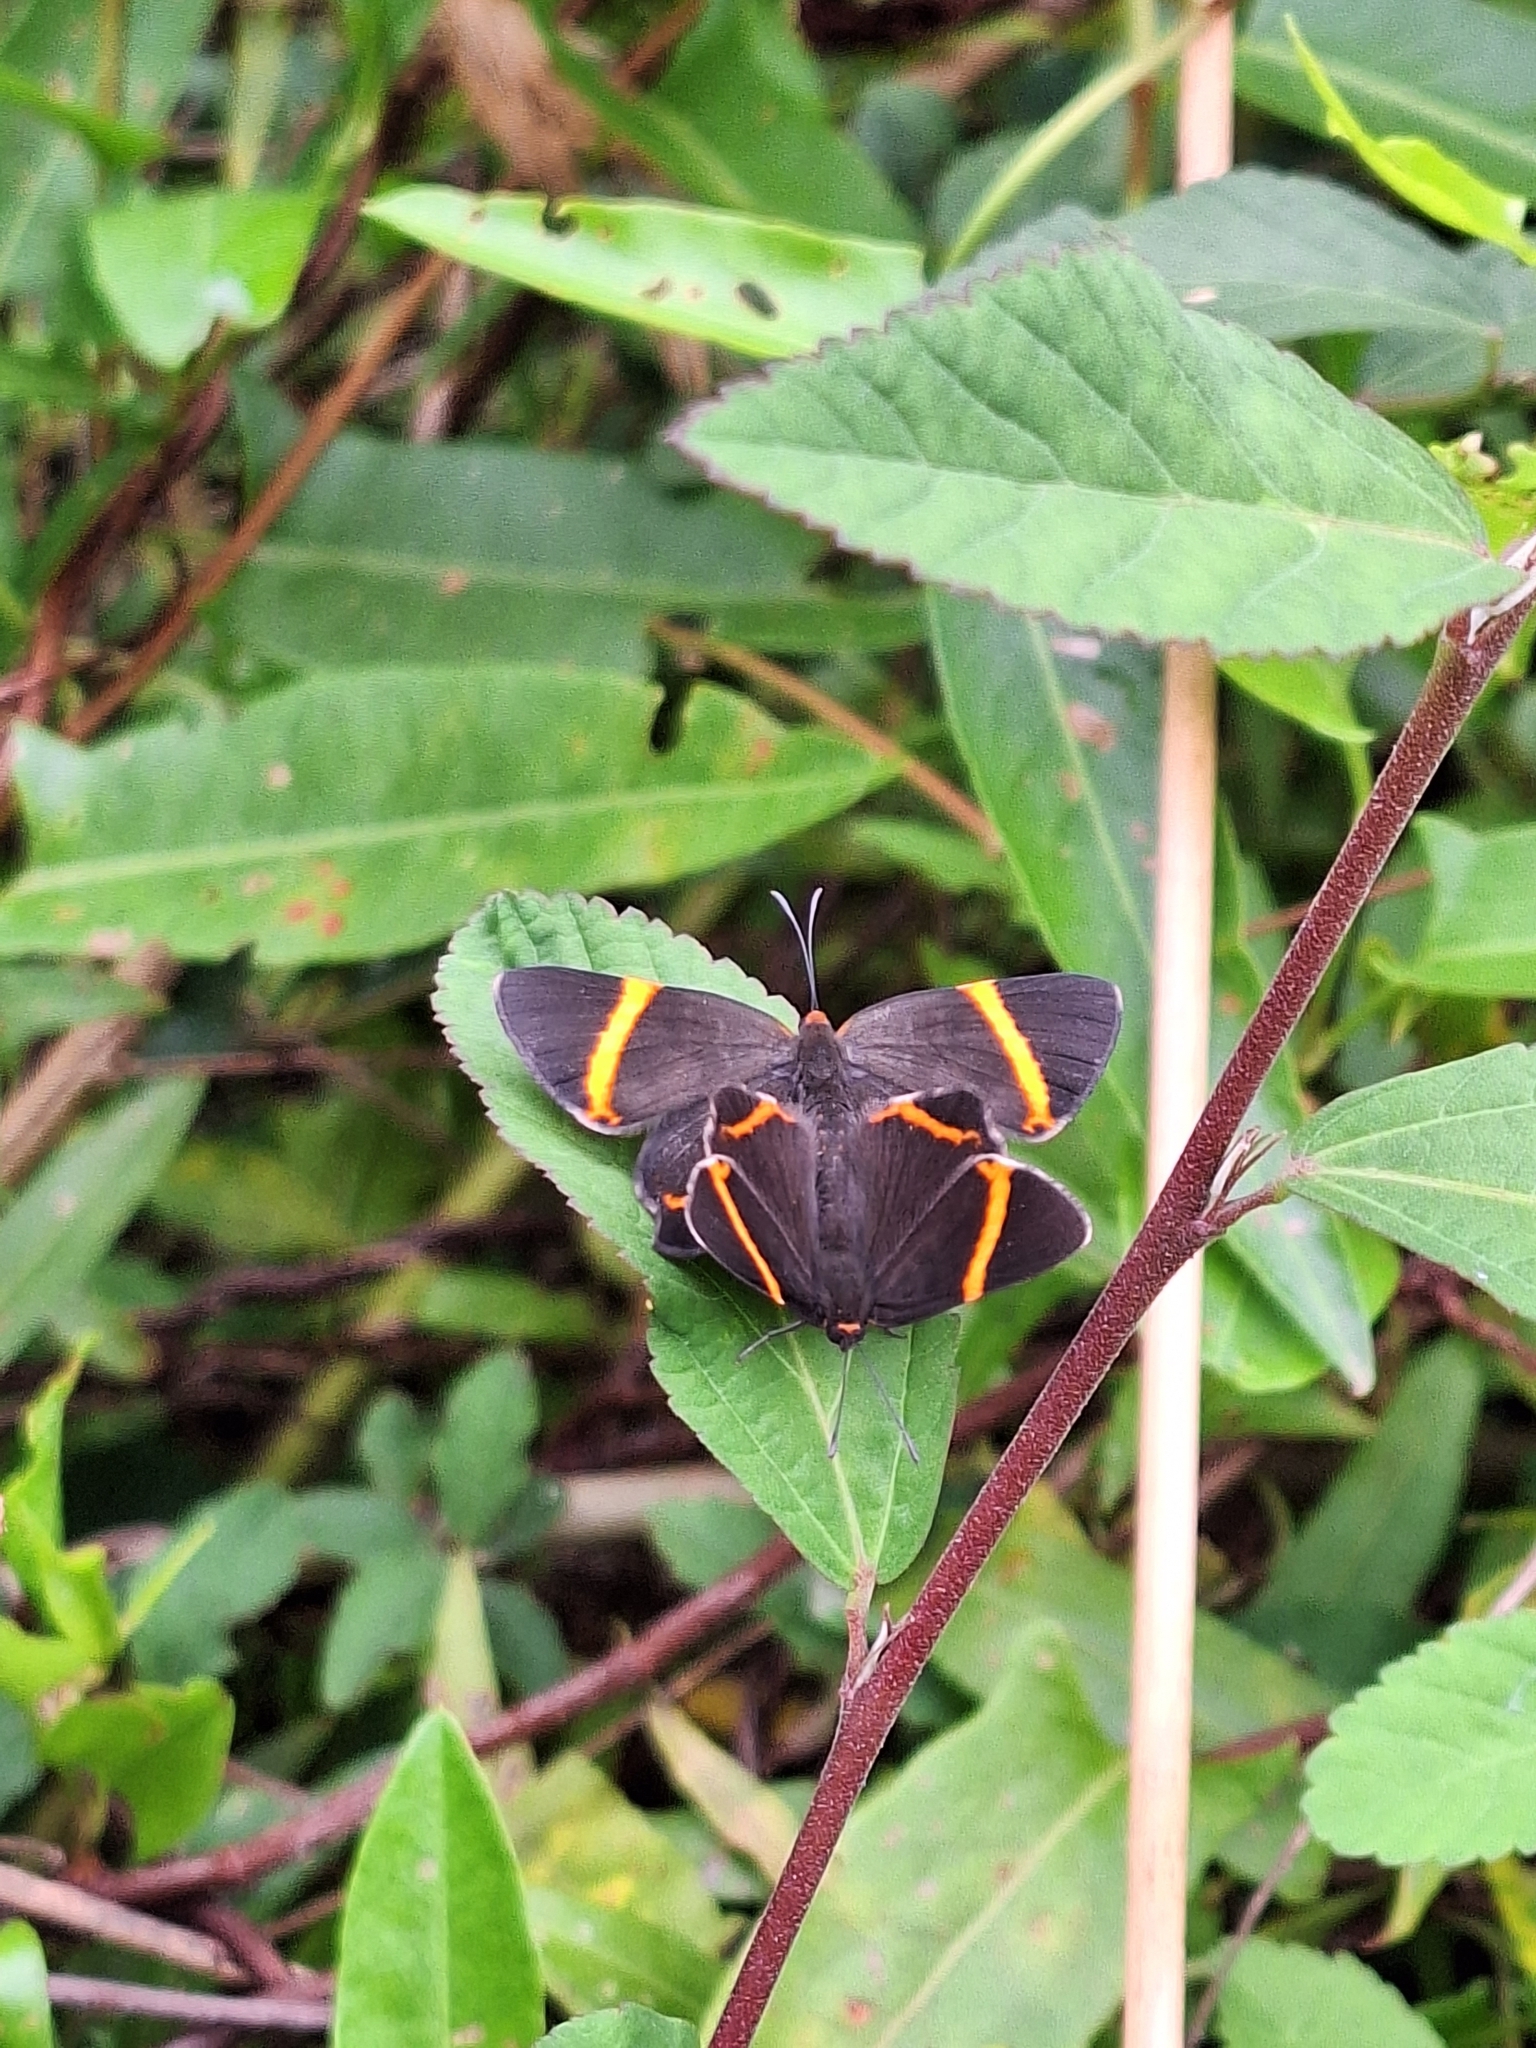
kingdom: Animalia
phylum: Arthropoda
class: Insecta
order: Lepidoptera
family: Riodinidae
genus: Riodina
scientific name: Riodina lysippoides
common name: Little dancer metalmark
